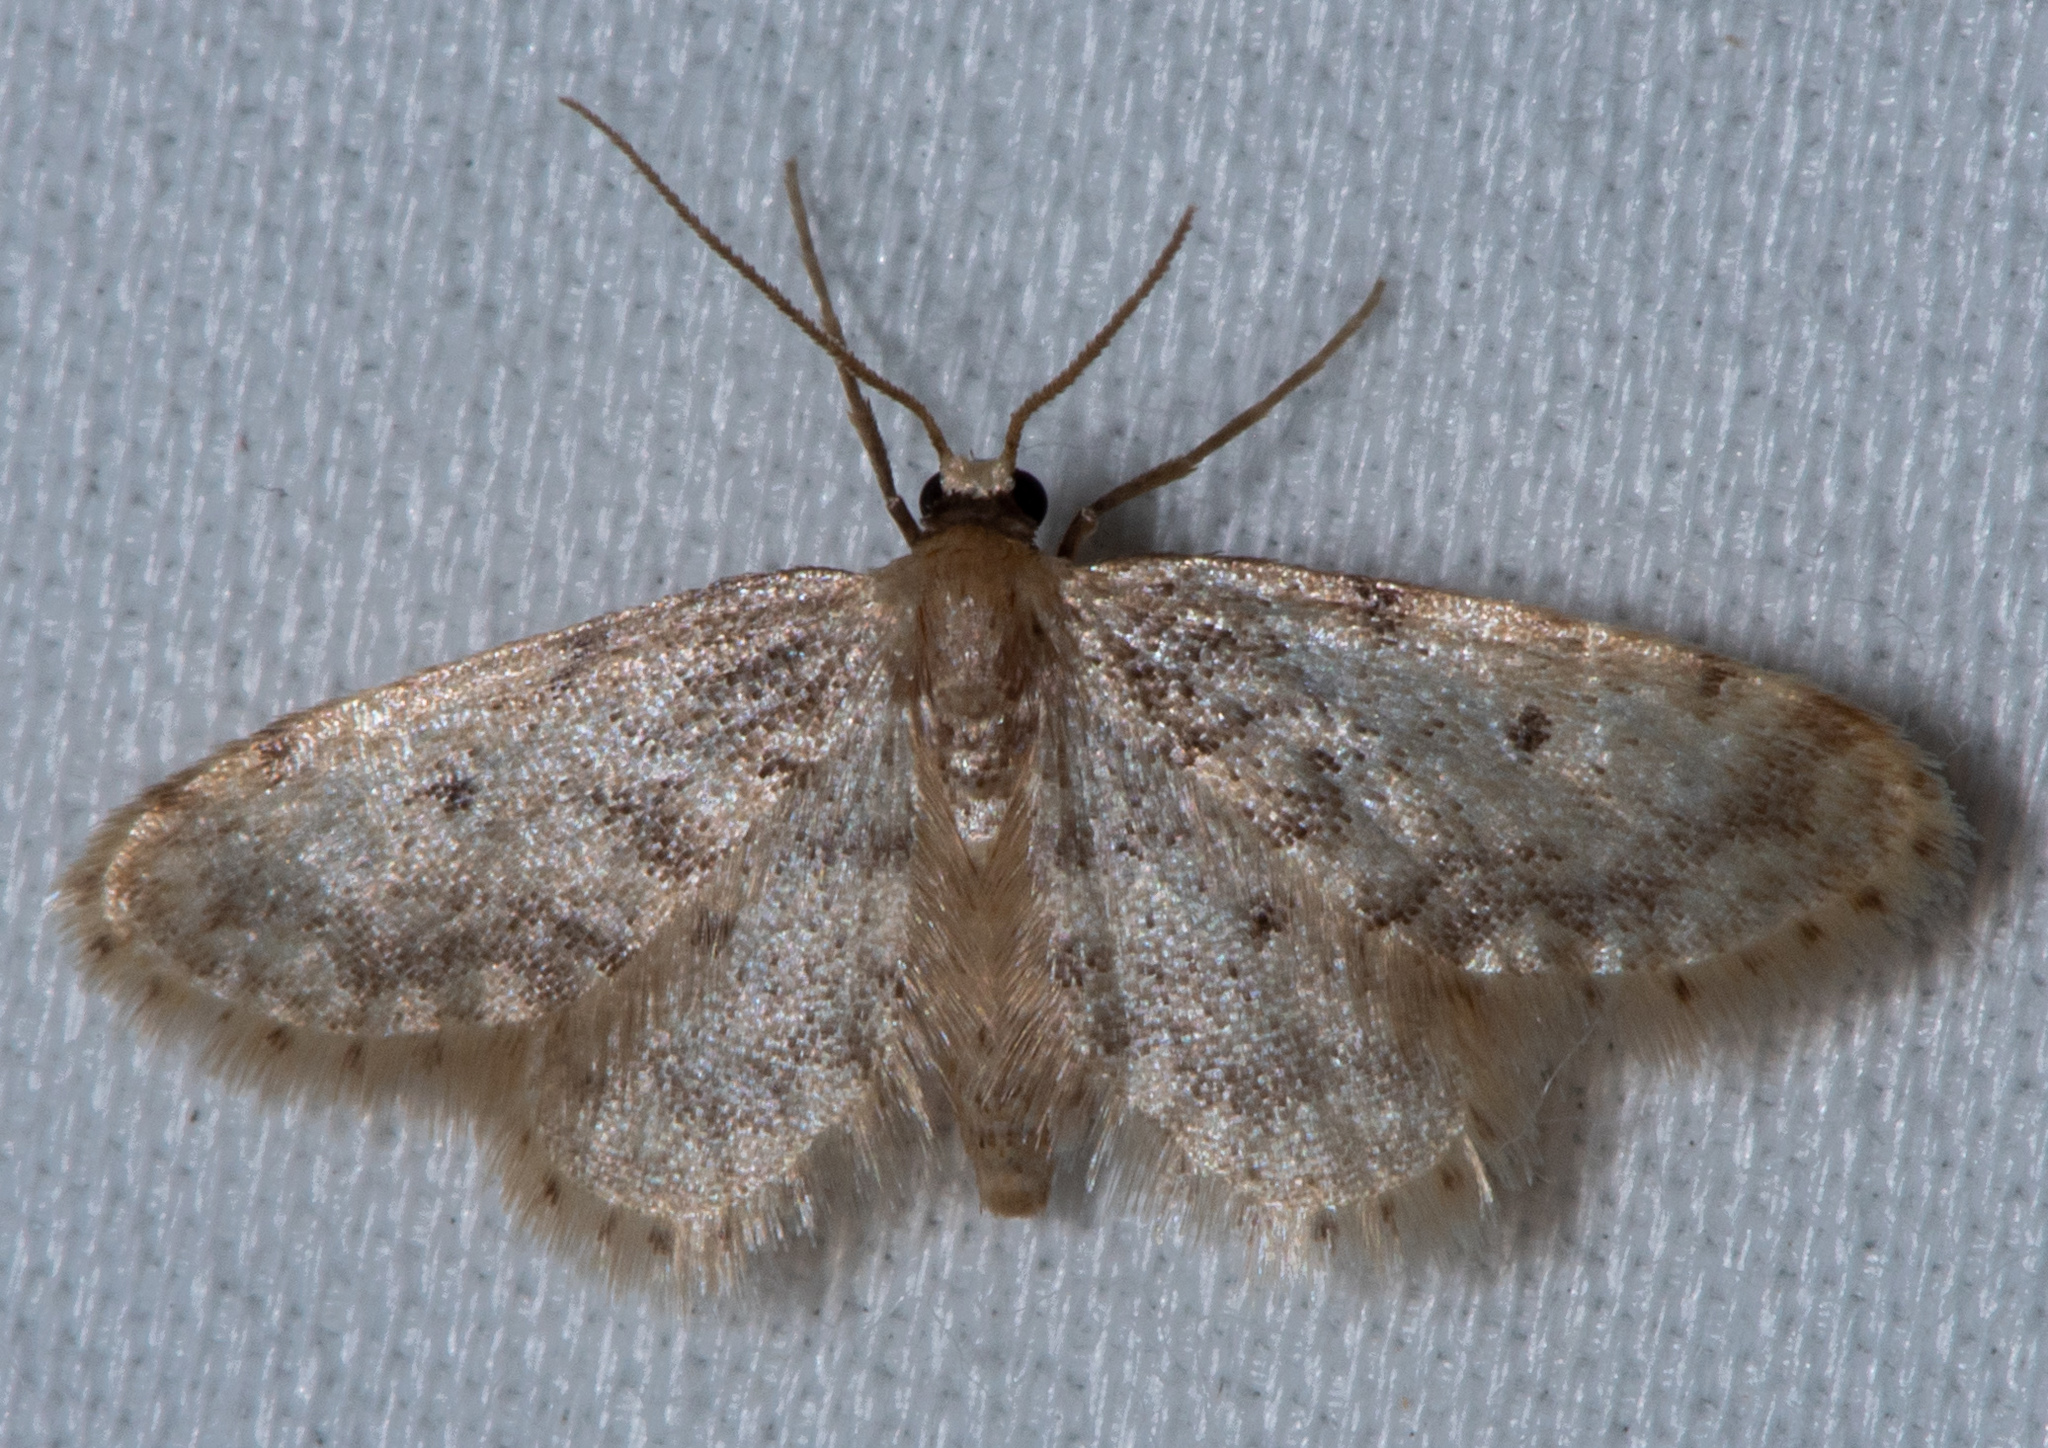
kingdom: Animalia
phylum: Arthropoda
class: Insecta
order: Lepidoptera
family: Geometridae
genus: Idaea
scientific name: Idaea bonifata
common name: Fortunate wave
